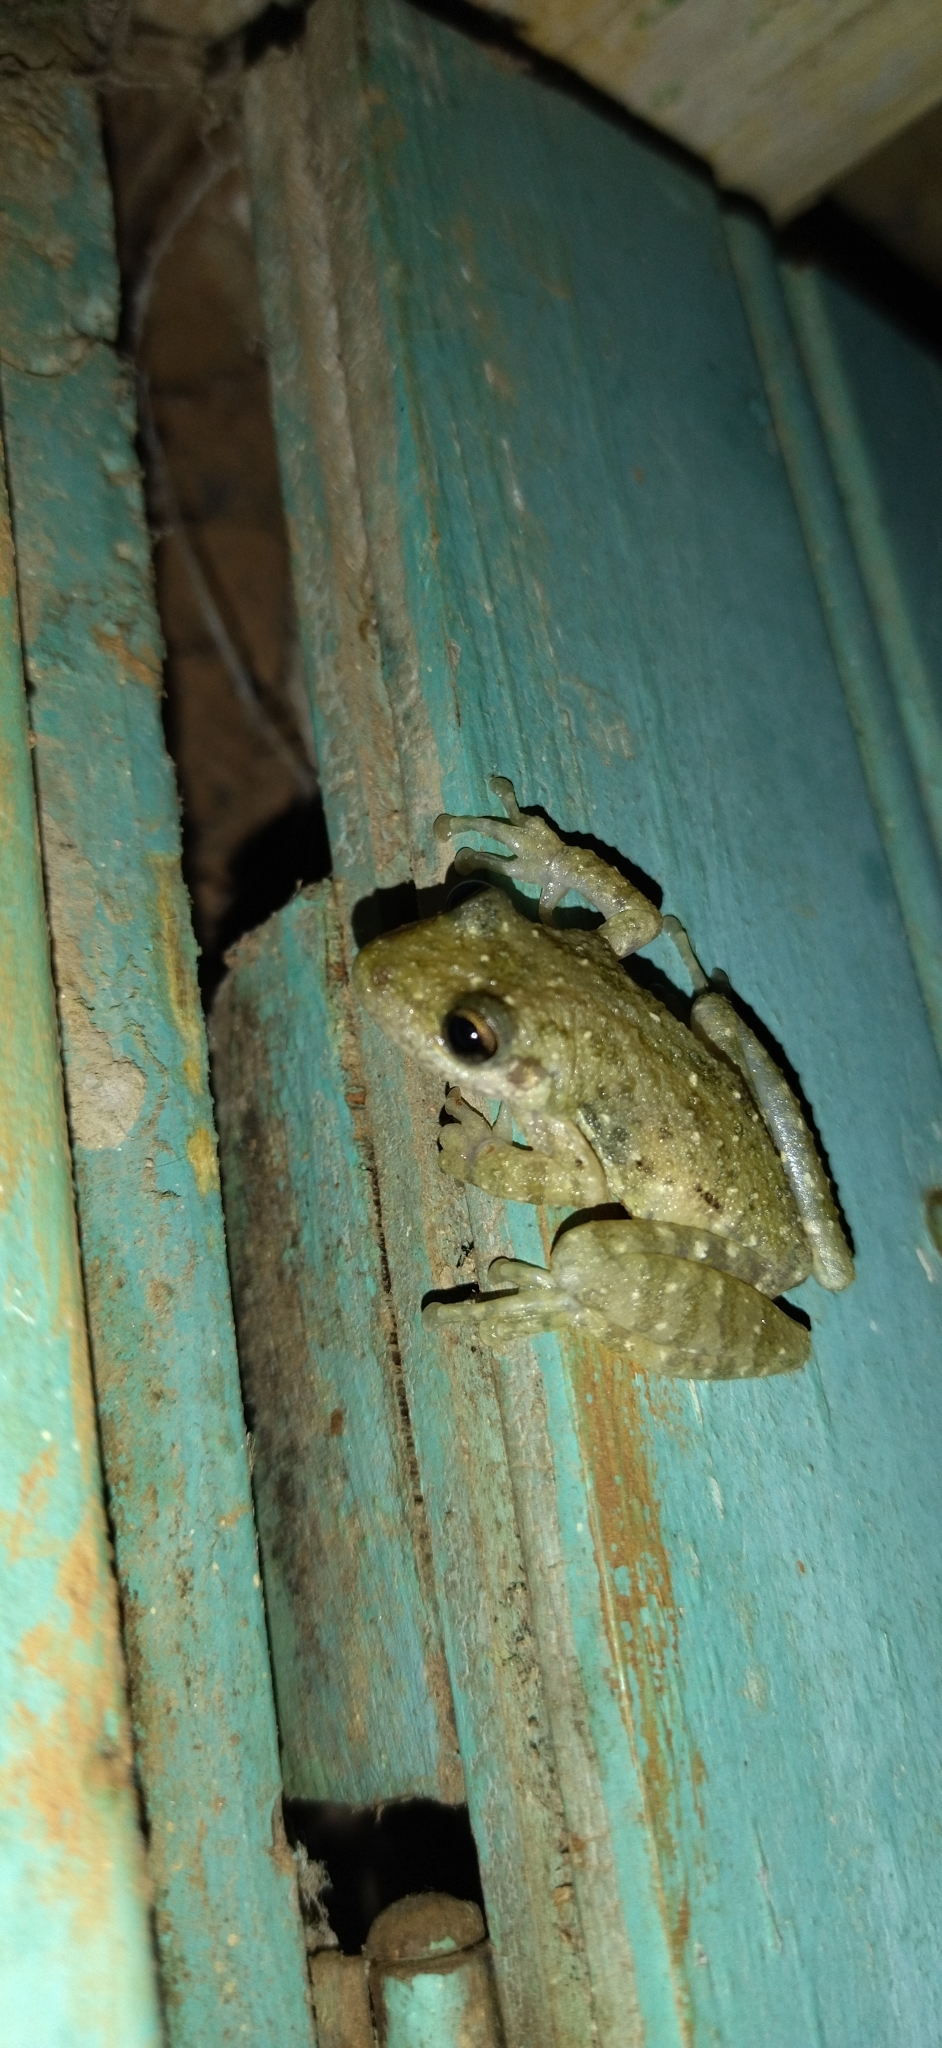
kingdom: Animalia
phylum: Chordata
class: Amphibia
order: Anura
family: Hylidae
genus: Scinax
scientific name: Scinax granulatus
